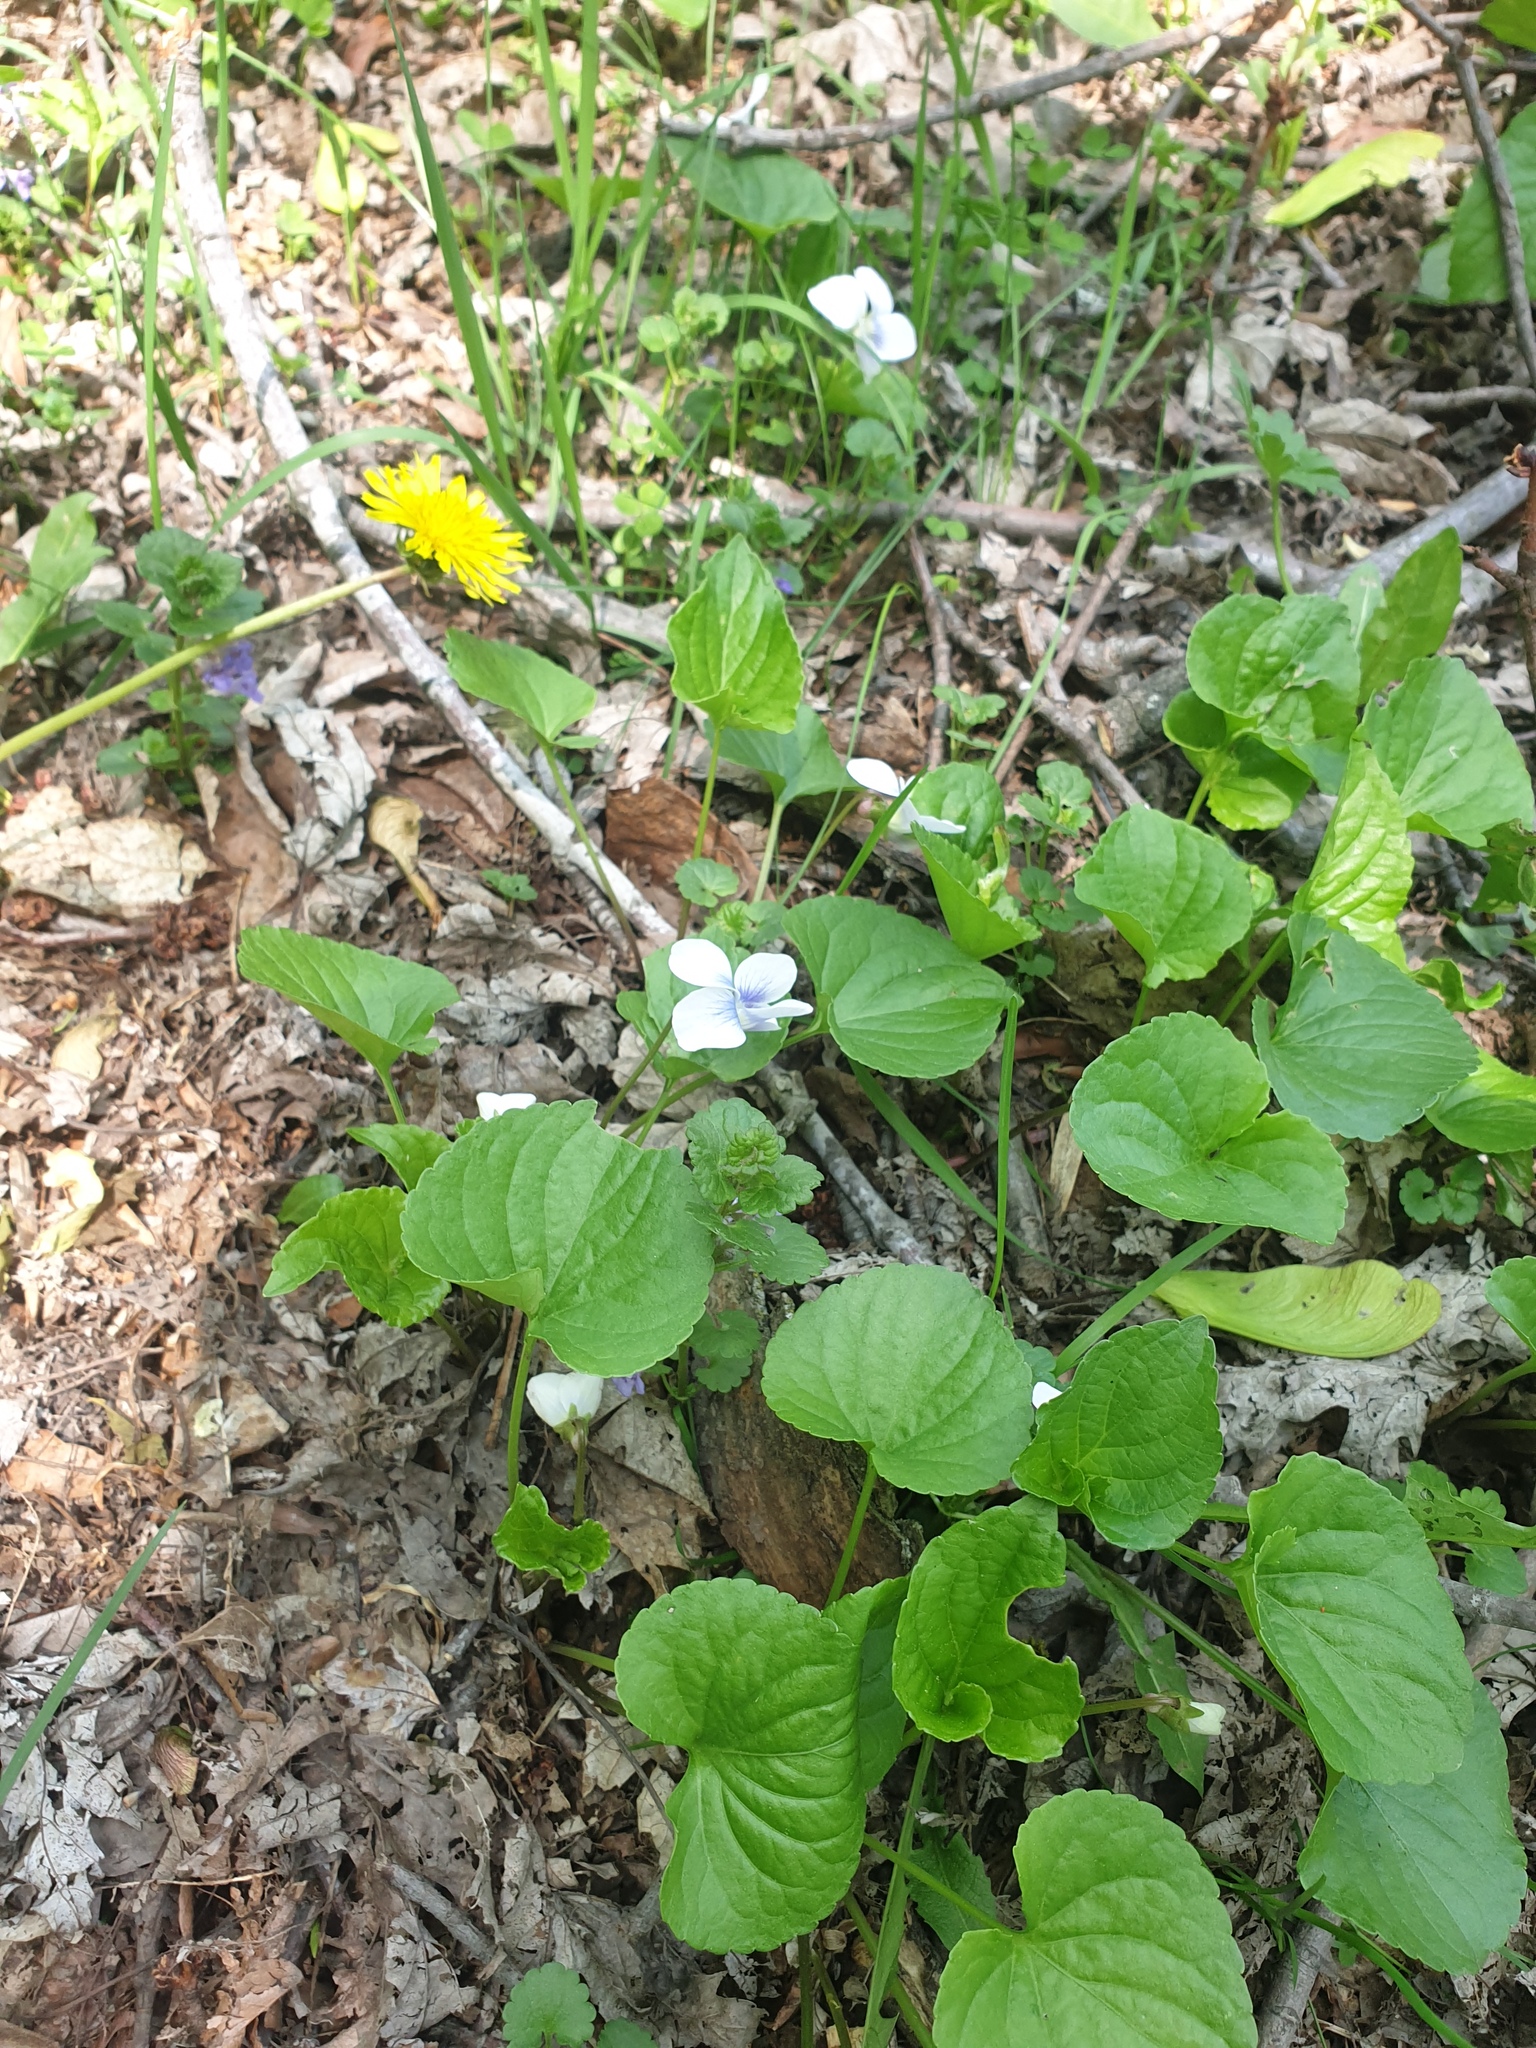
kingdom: Plantae
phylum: Tracheophyta
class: Magnoliopsida
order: Malpighiales
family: Violaceae
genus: Viola
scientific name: Viola communis
